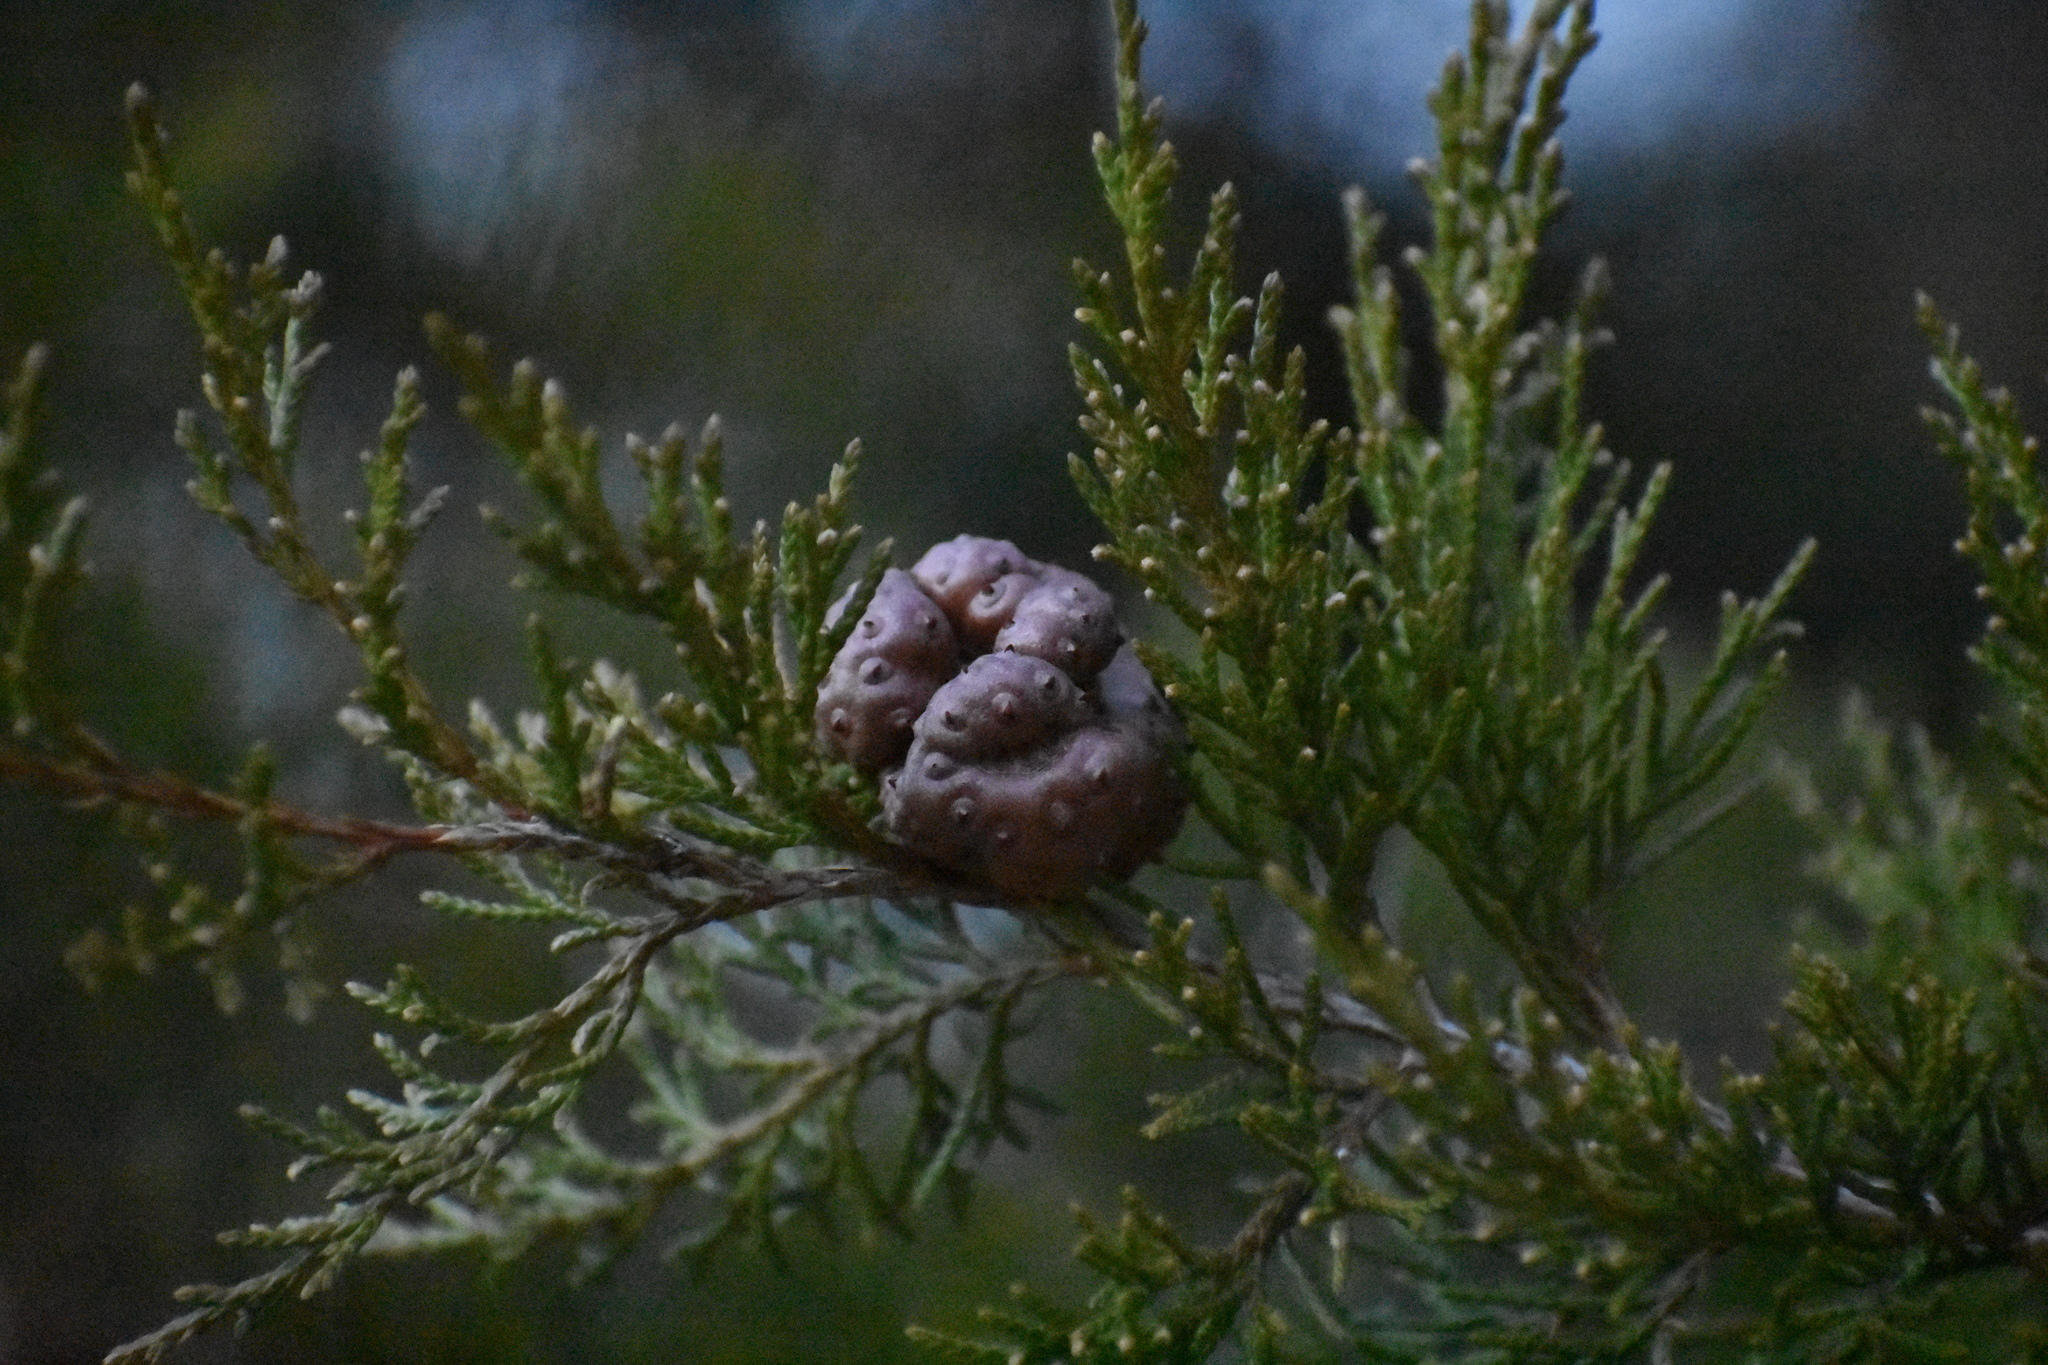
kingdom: Fungi
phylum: Basidiomycota
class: Pucciniomycetes
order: Pucciniales
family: Gymnosporangiaceae
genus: Gymnosporangium
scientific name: Gymnosporangium juniperi-virginianae
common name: Juniper-apple rust
